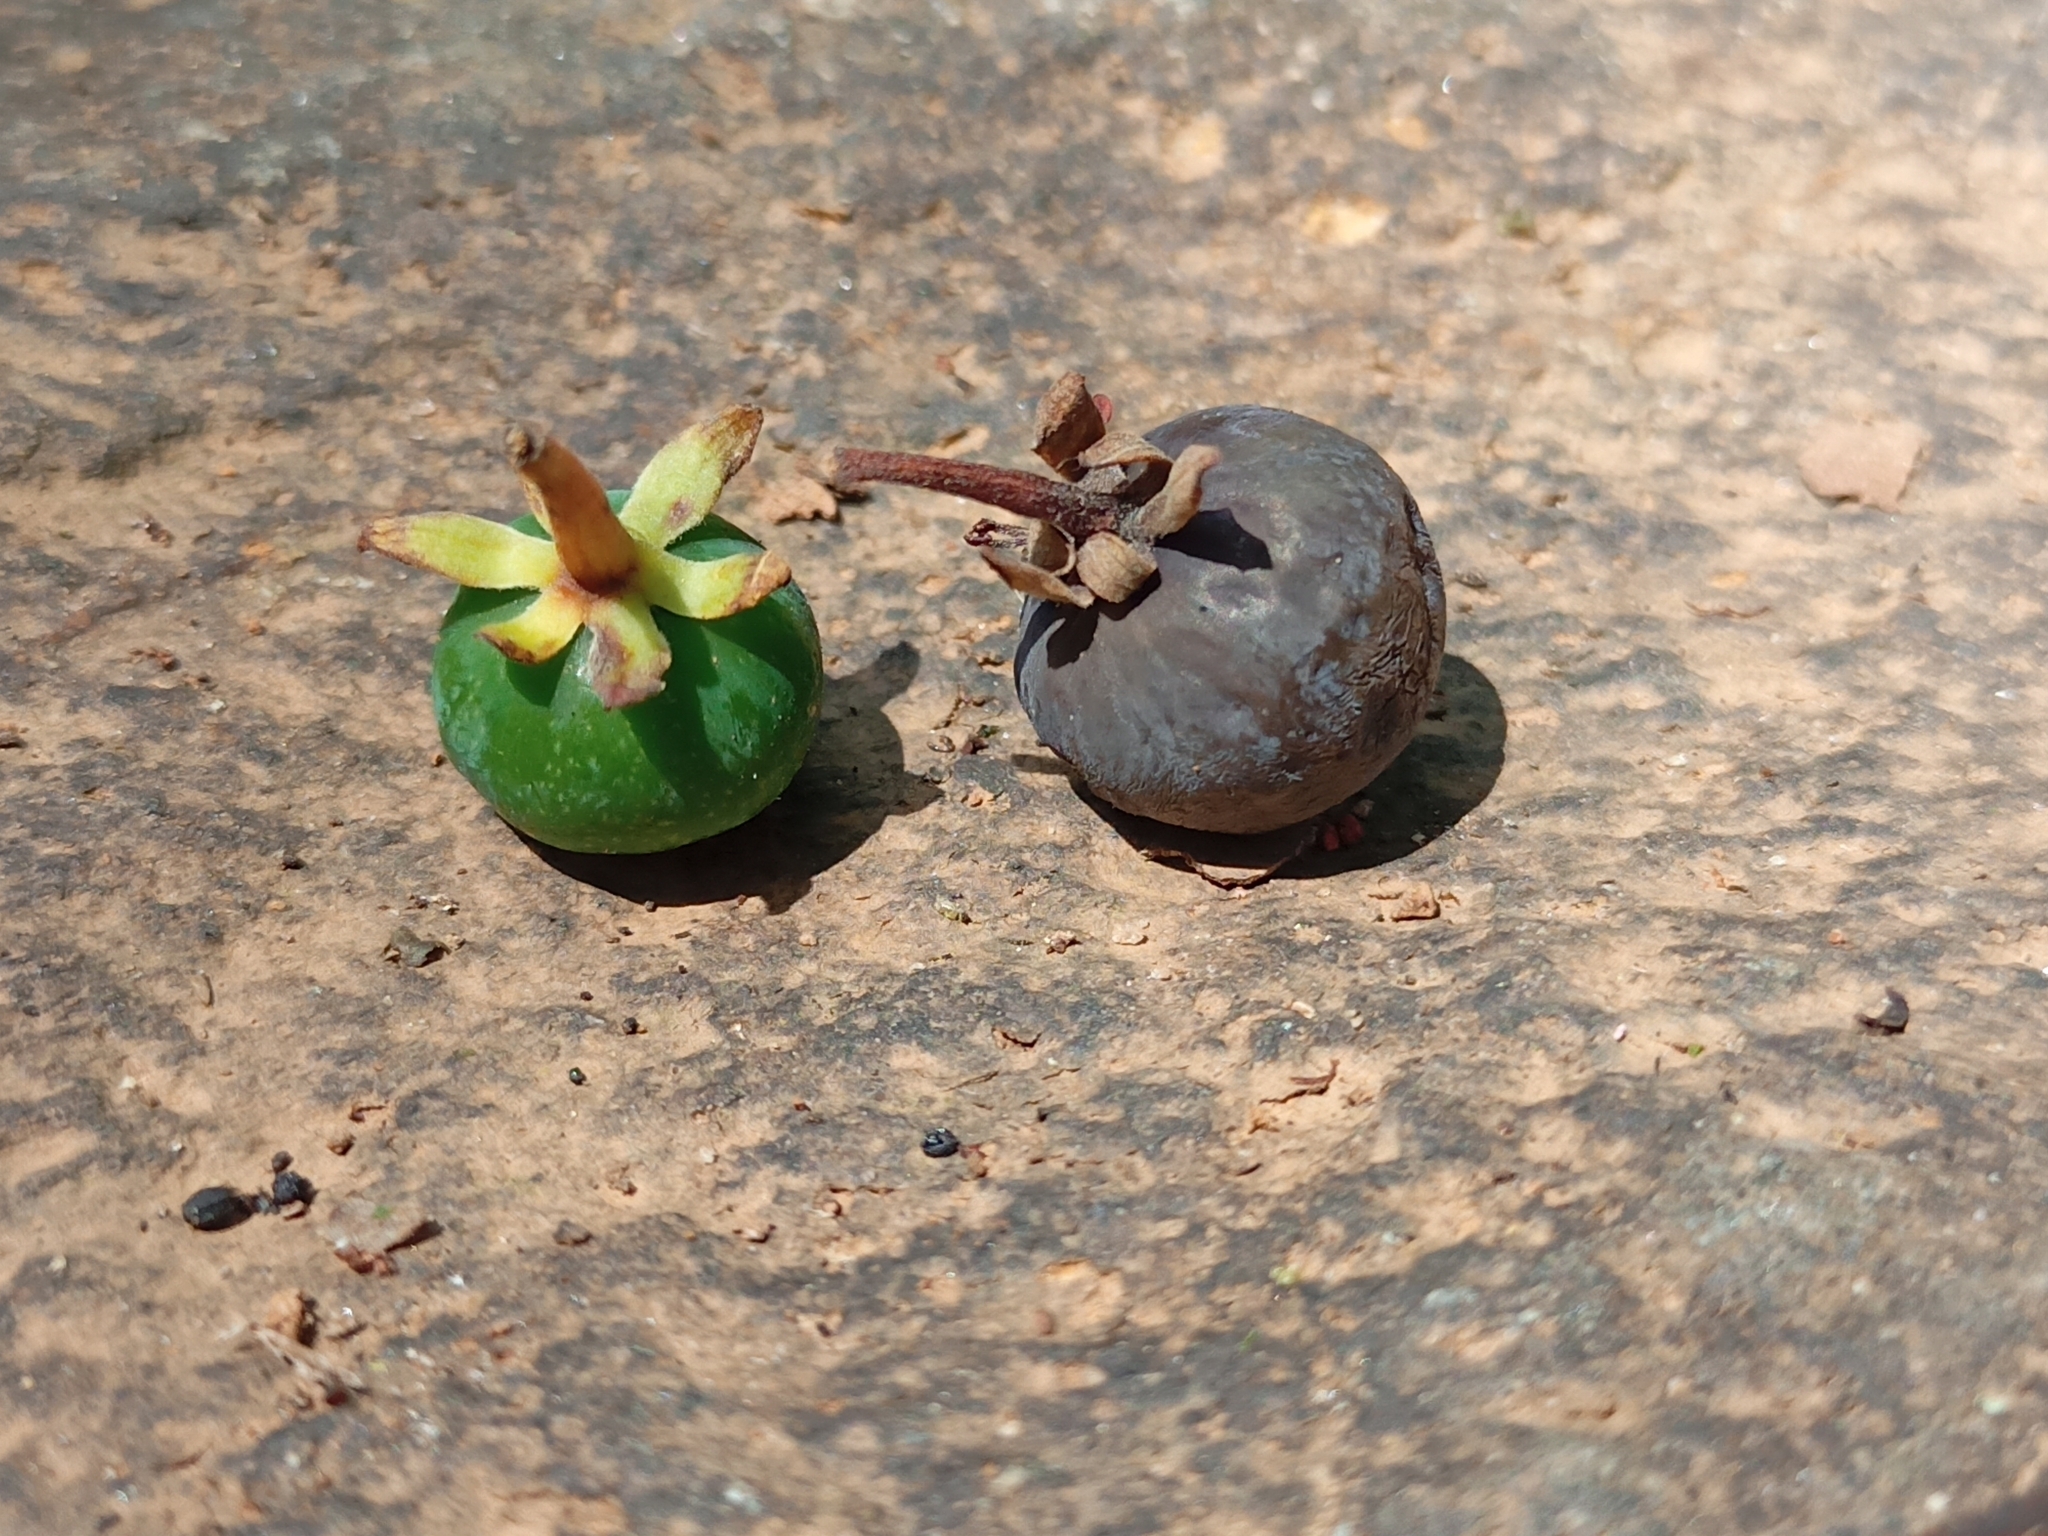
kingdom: Plantae
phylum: Tracheophyta
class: Magnoliopsida
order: Laurales
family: Lauraceae
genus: Machilus
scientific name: Machilus glaucescens
